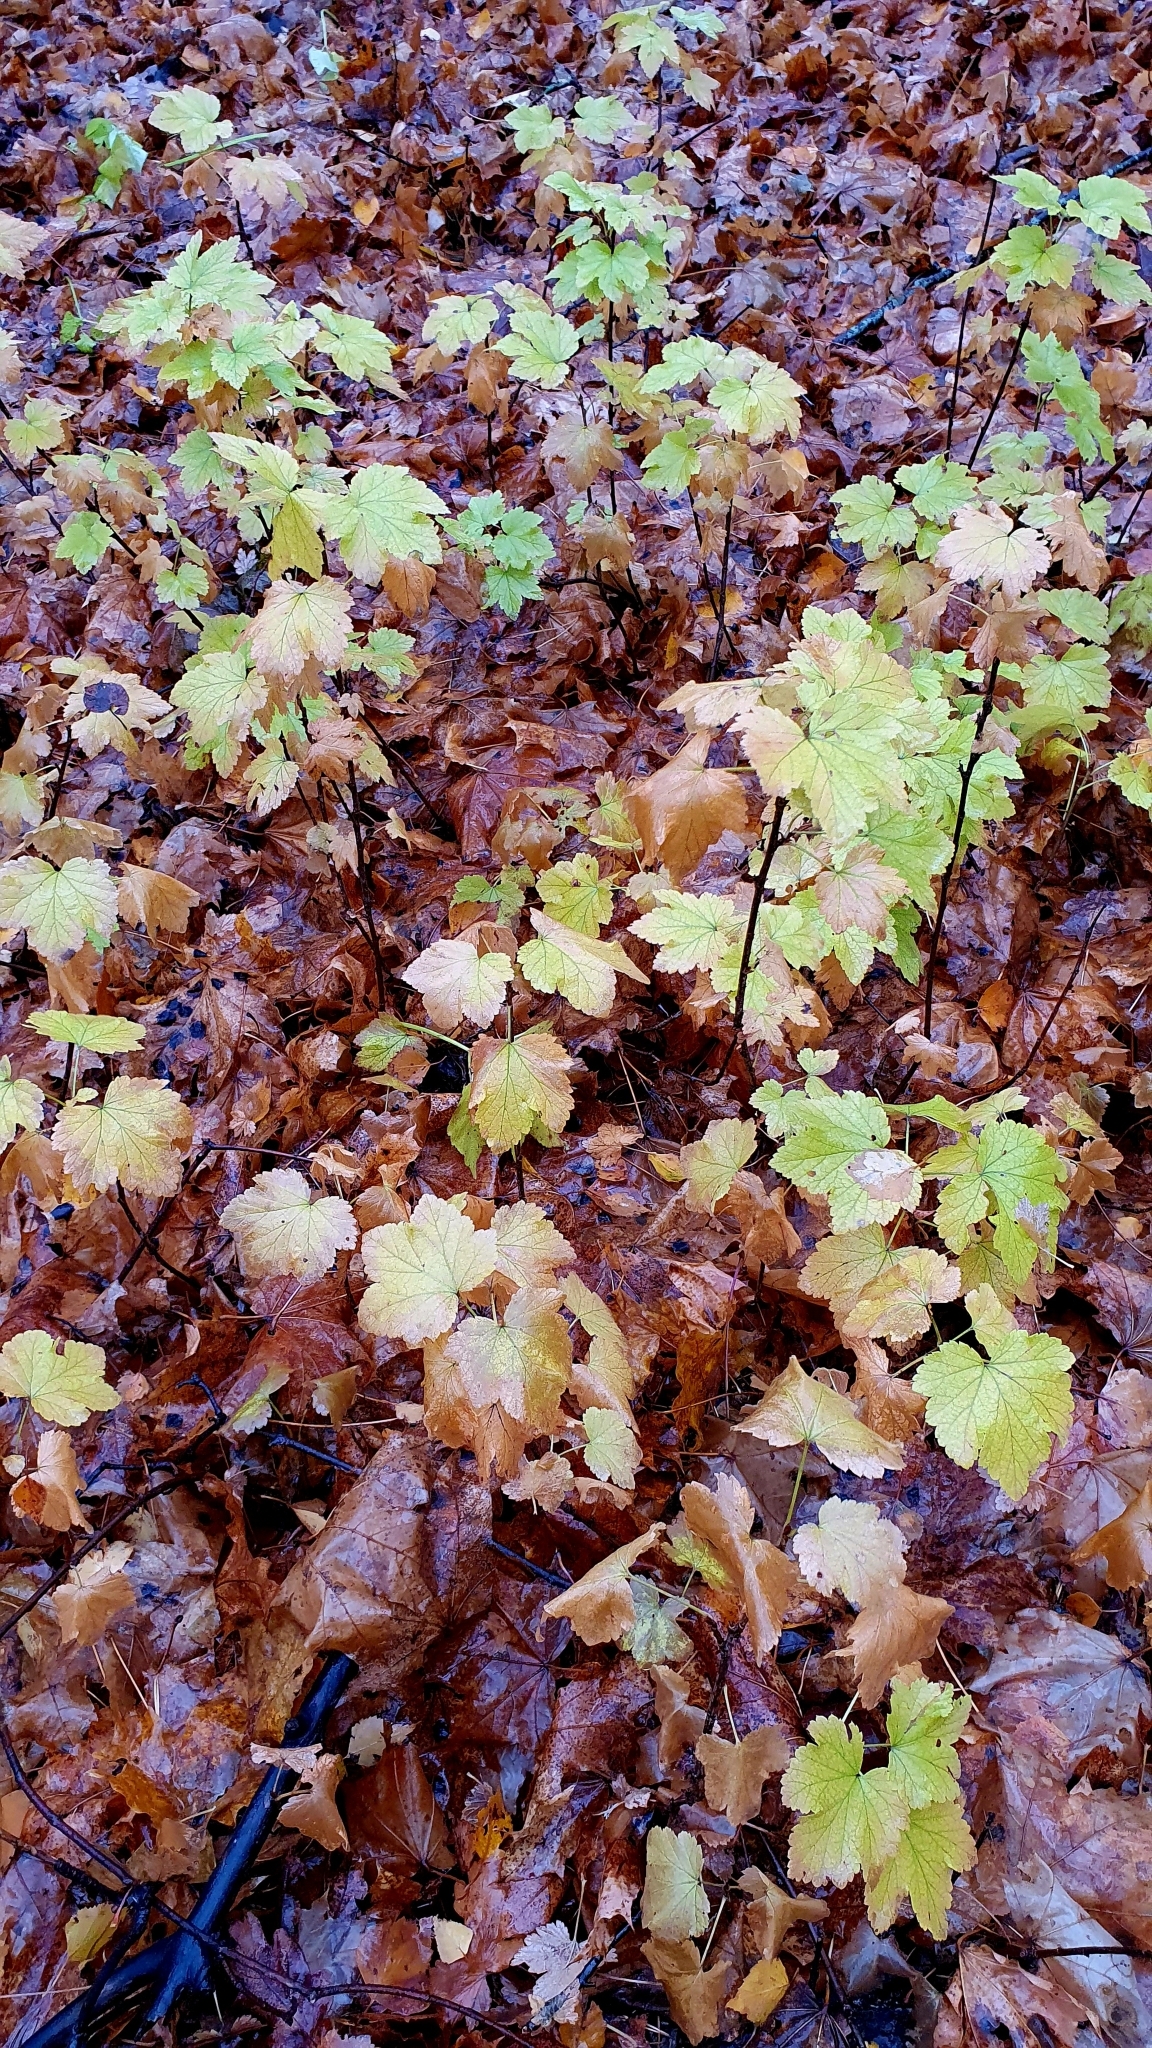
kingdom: Plantae
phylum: Tracheophyta
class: Magnoliopsida
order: Saxifragales
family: Grossulariaceae
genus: Ribes
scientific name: Ribes nigrum
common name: Black currant
